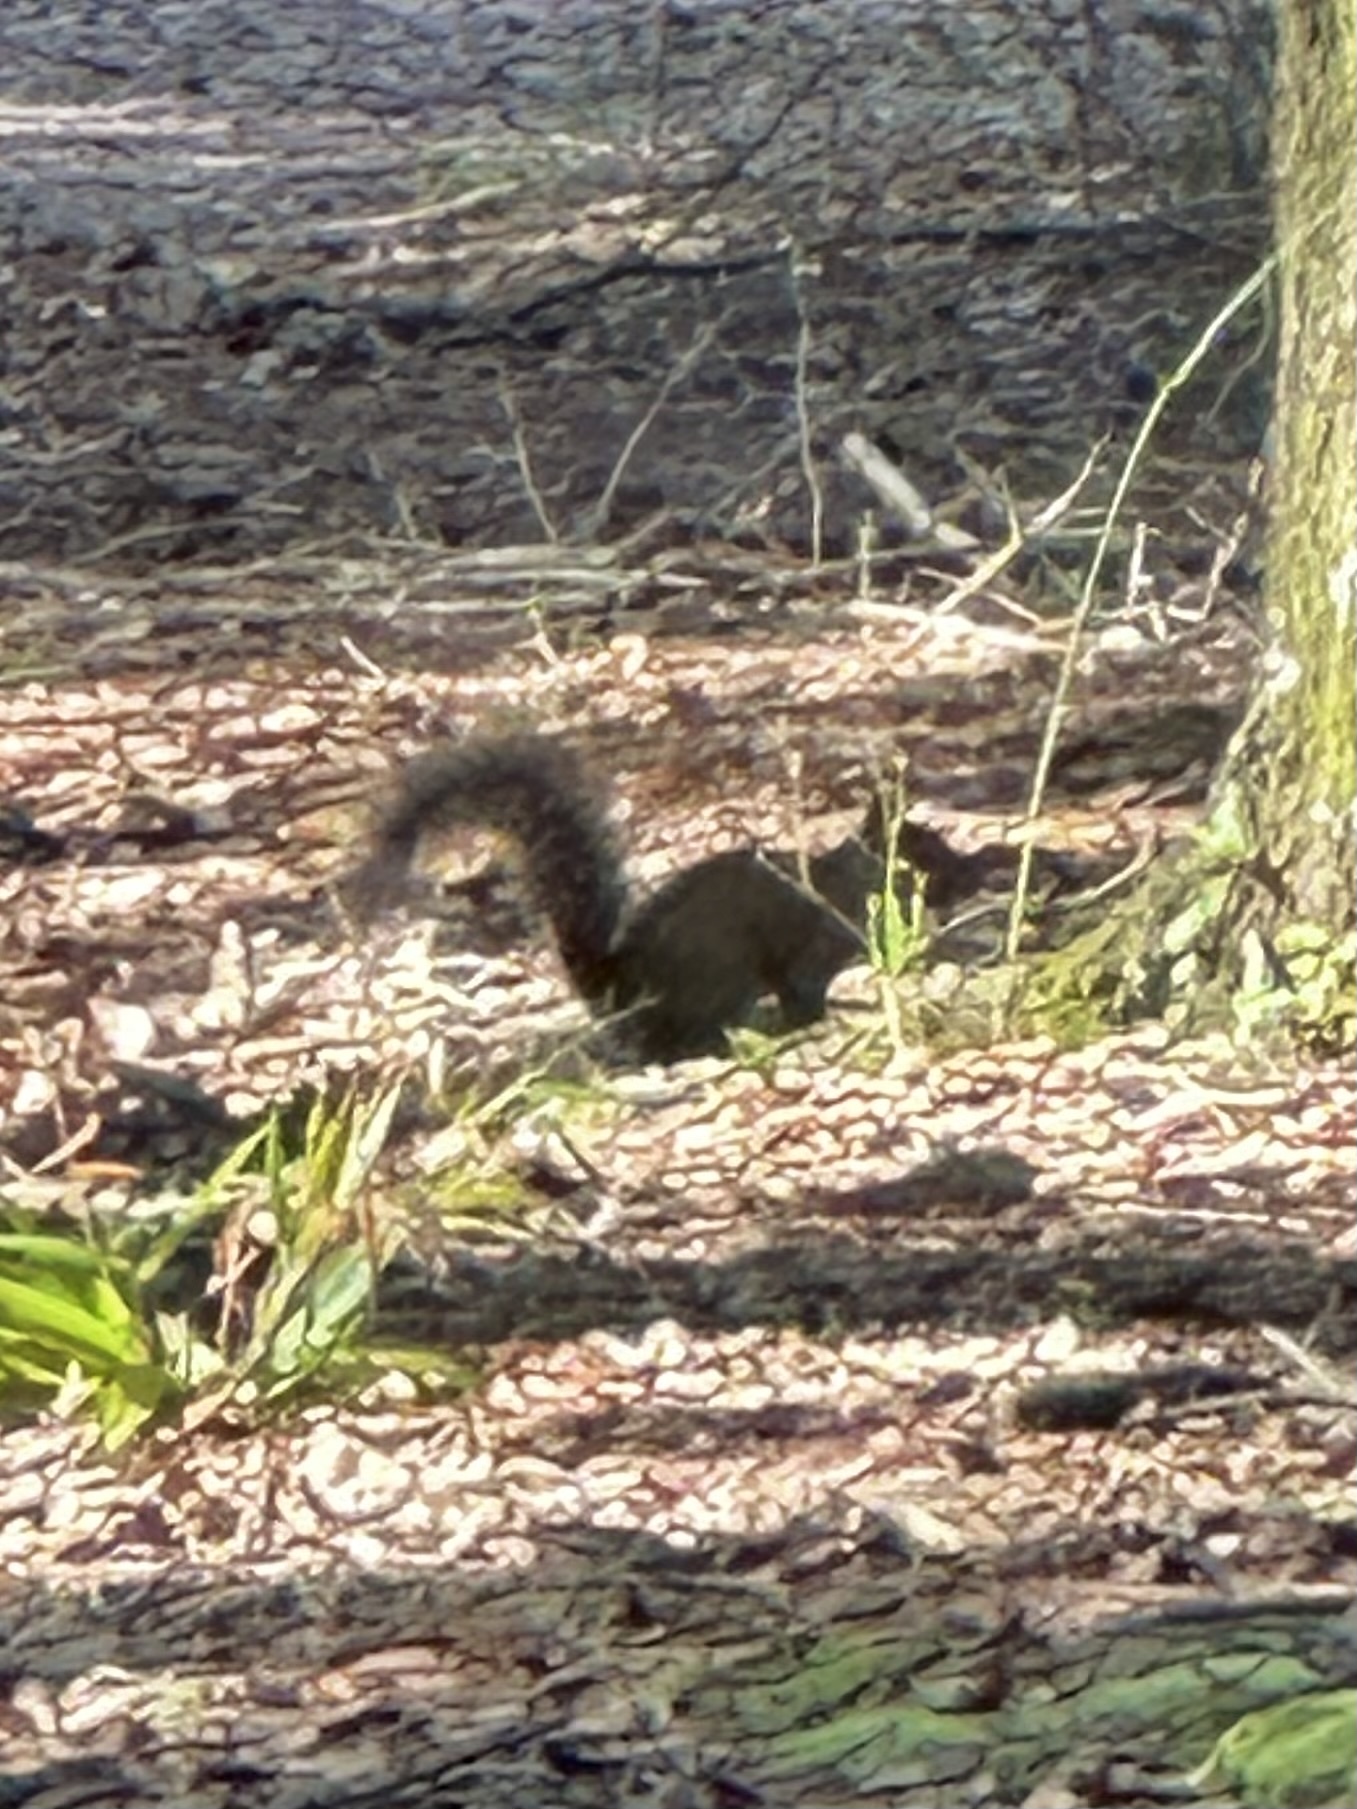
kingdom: Animalia
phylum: Chordata
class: Mammalia
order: Rodentia
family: Sciuridae
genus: Sciurus
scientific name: Sciurus carolinensis
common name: Eastern gray squirrel
